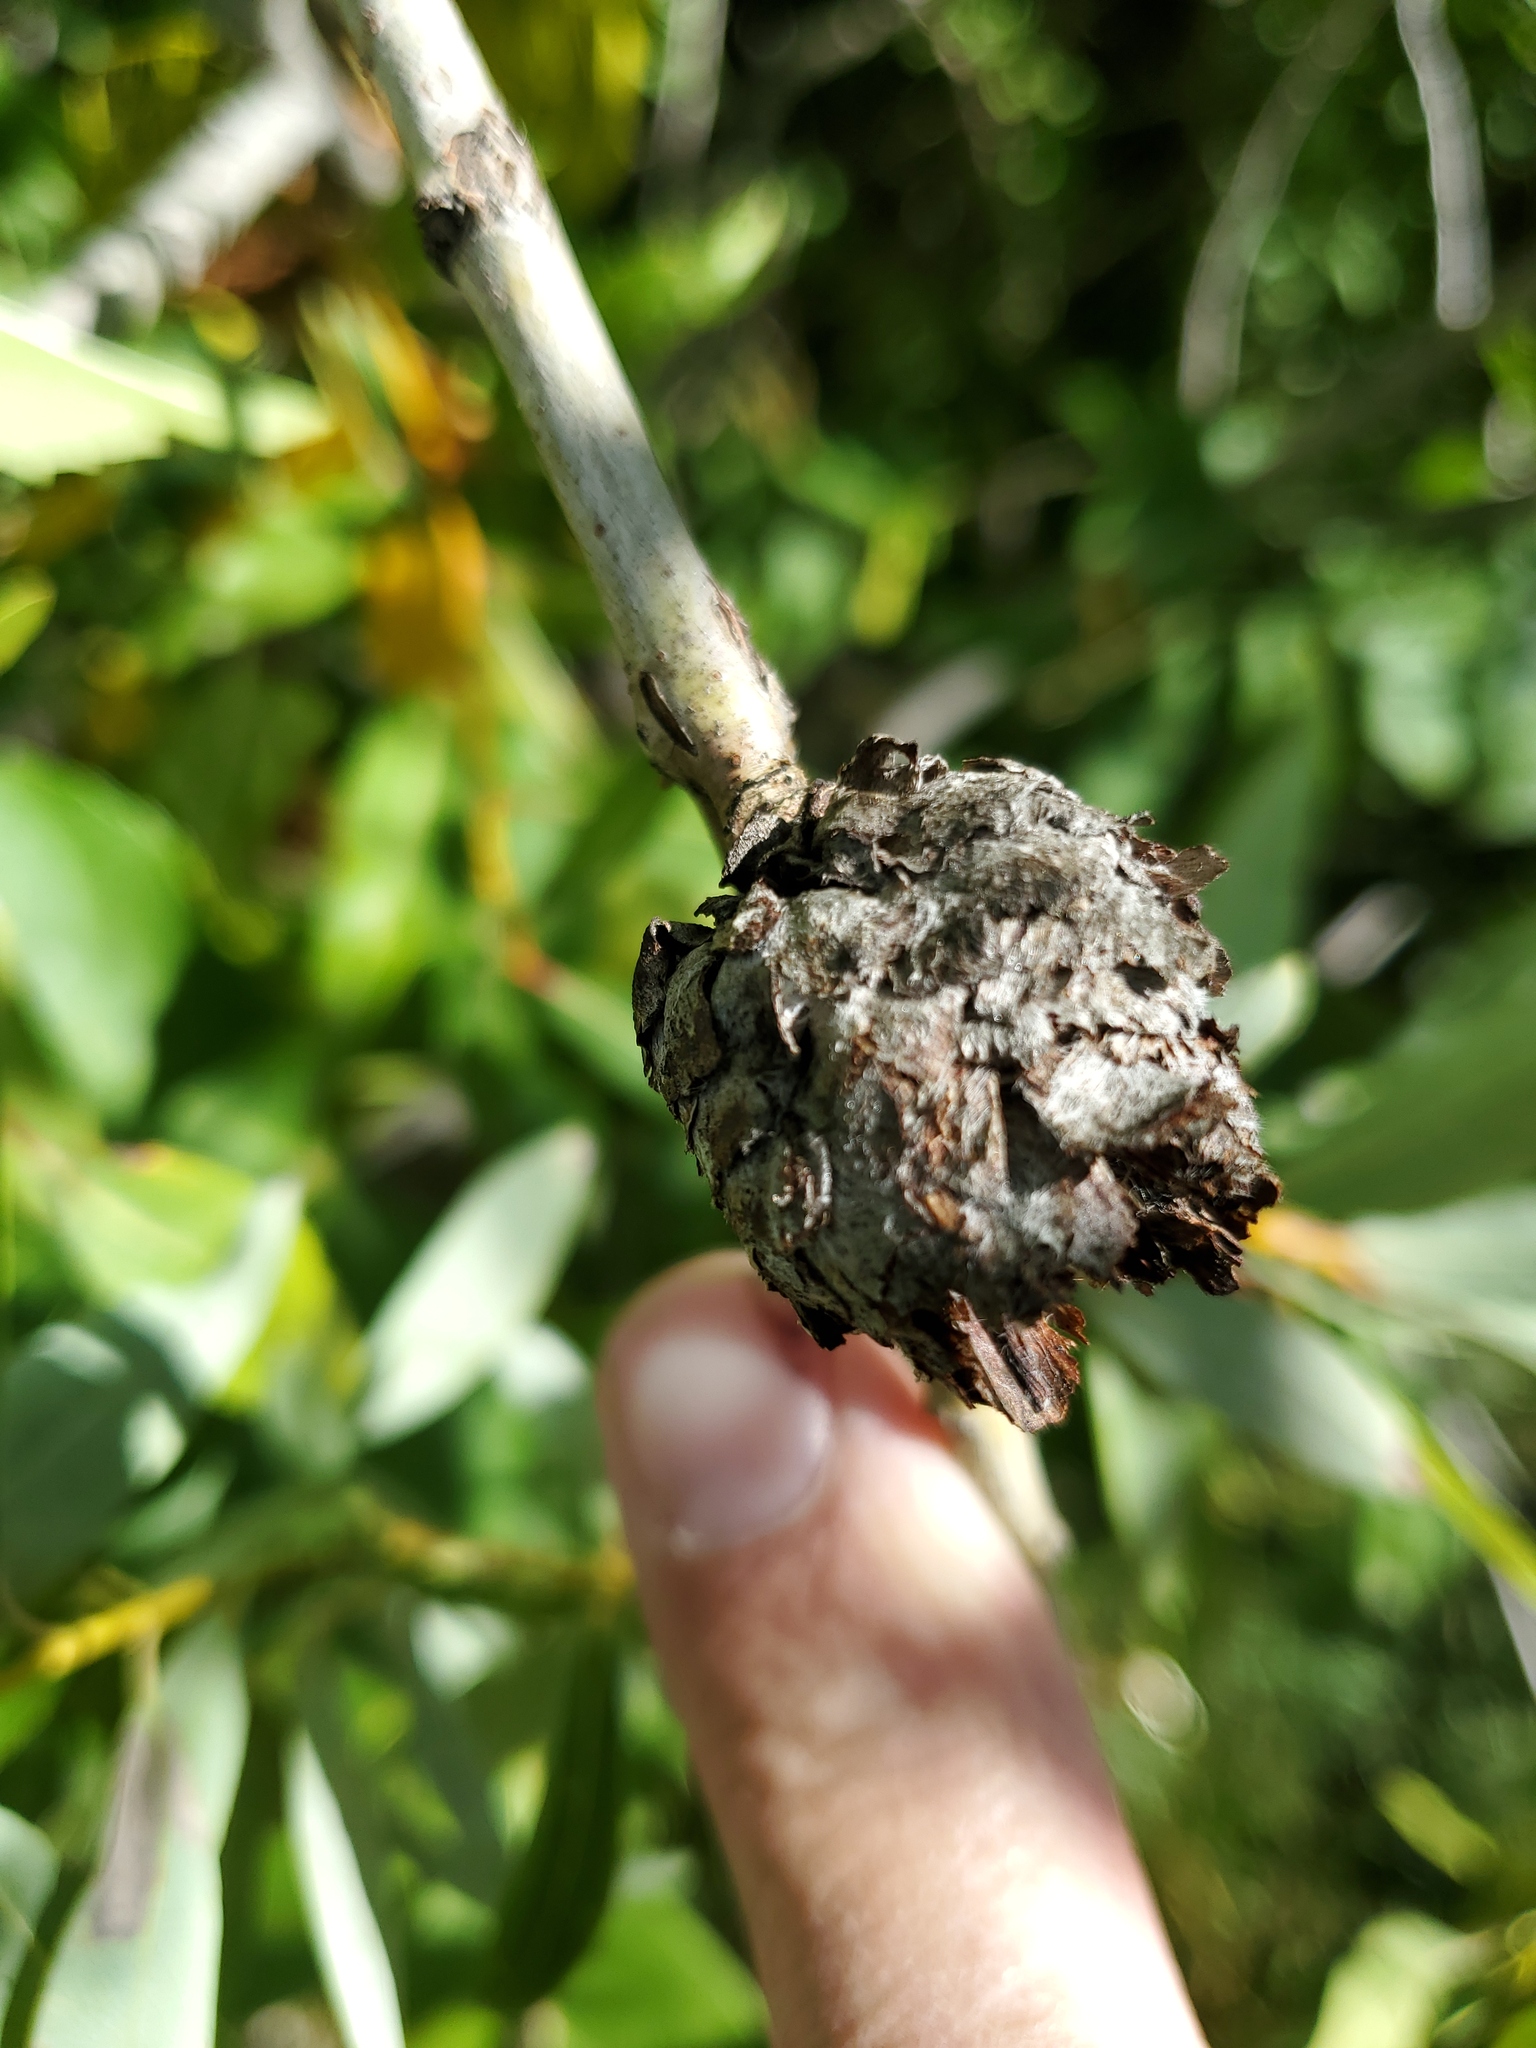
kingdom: Animalia
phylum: Arthropoda
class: Insecta
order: Diptera
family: Cecidomyiidae
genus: Rabdophaga
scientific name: Rabdophaga strobiloides
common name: Willow pinecone gall midge
